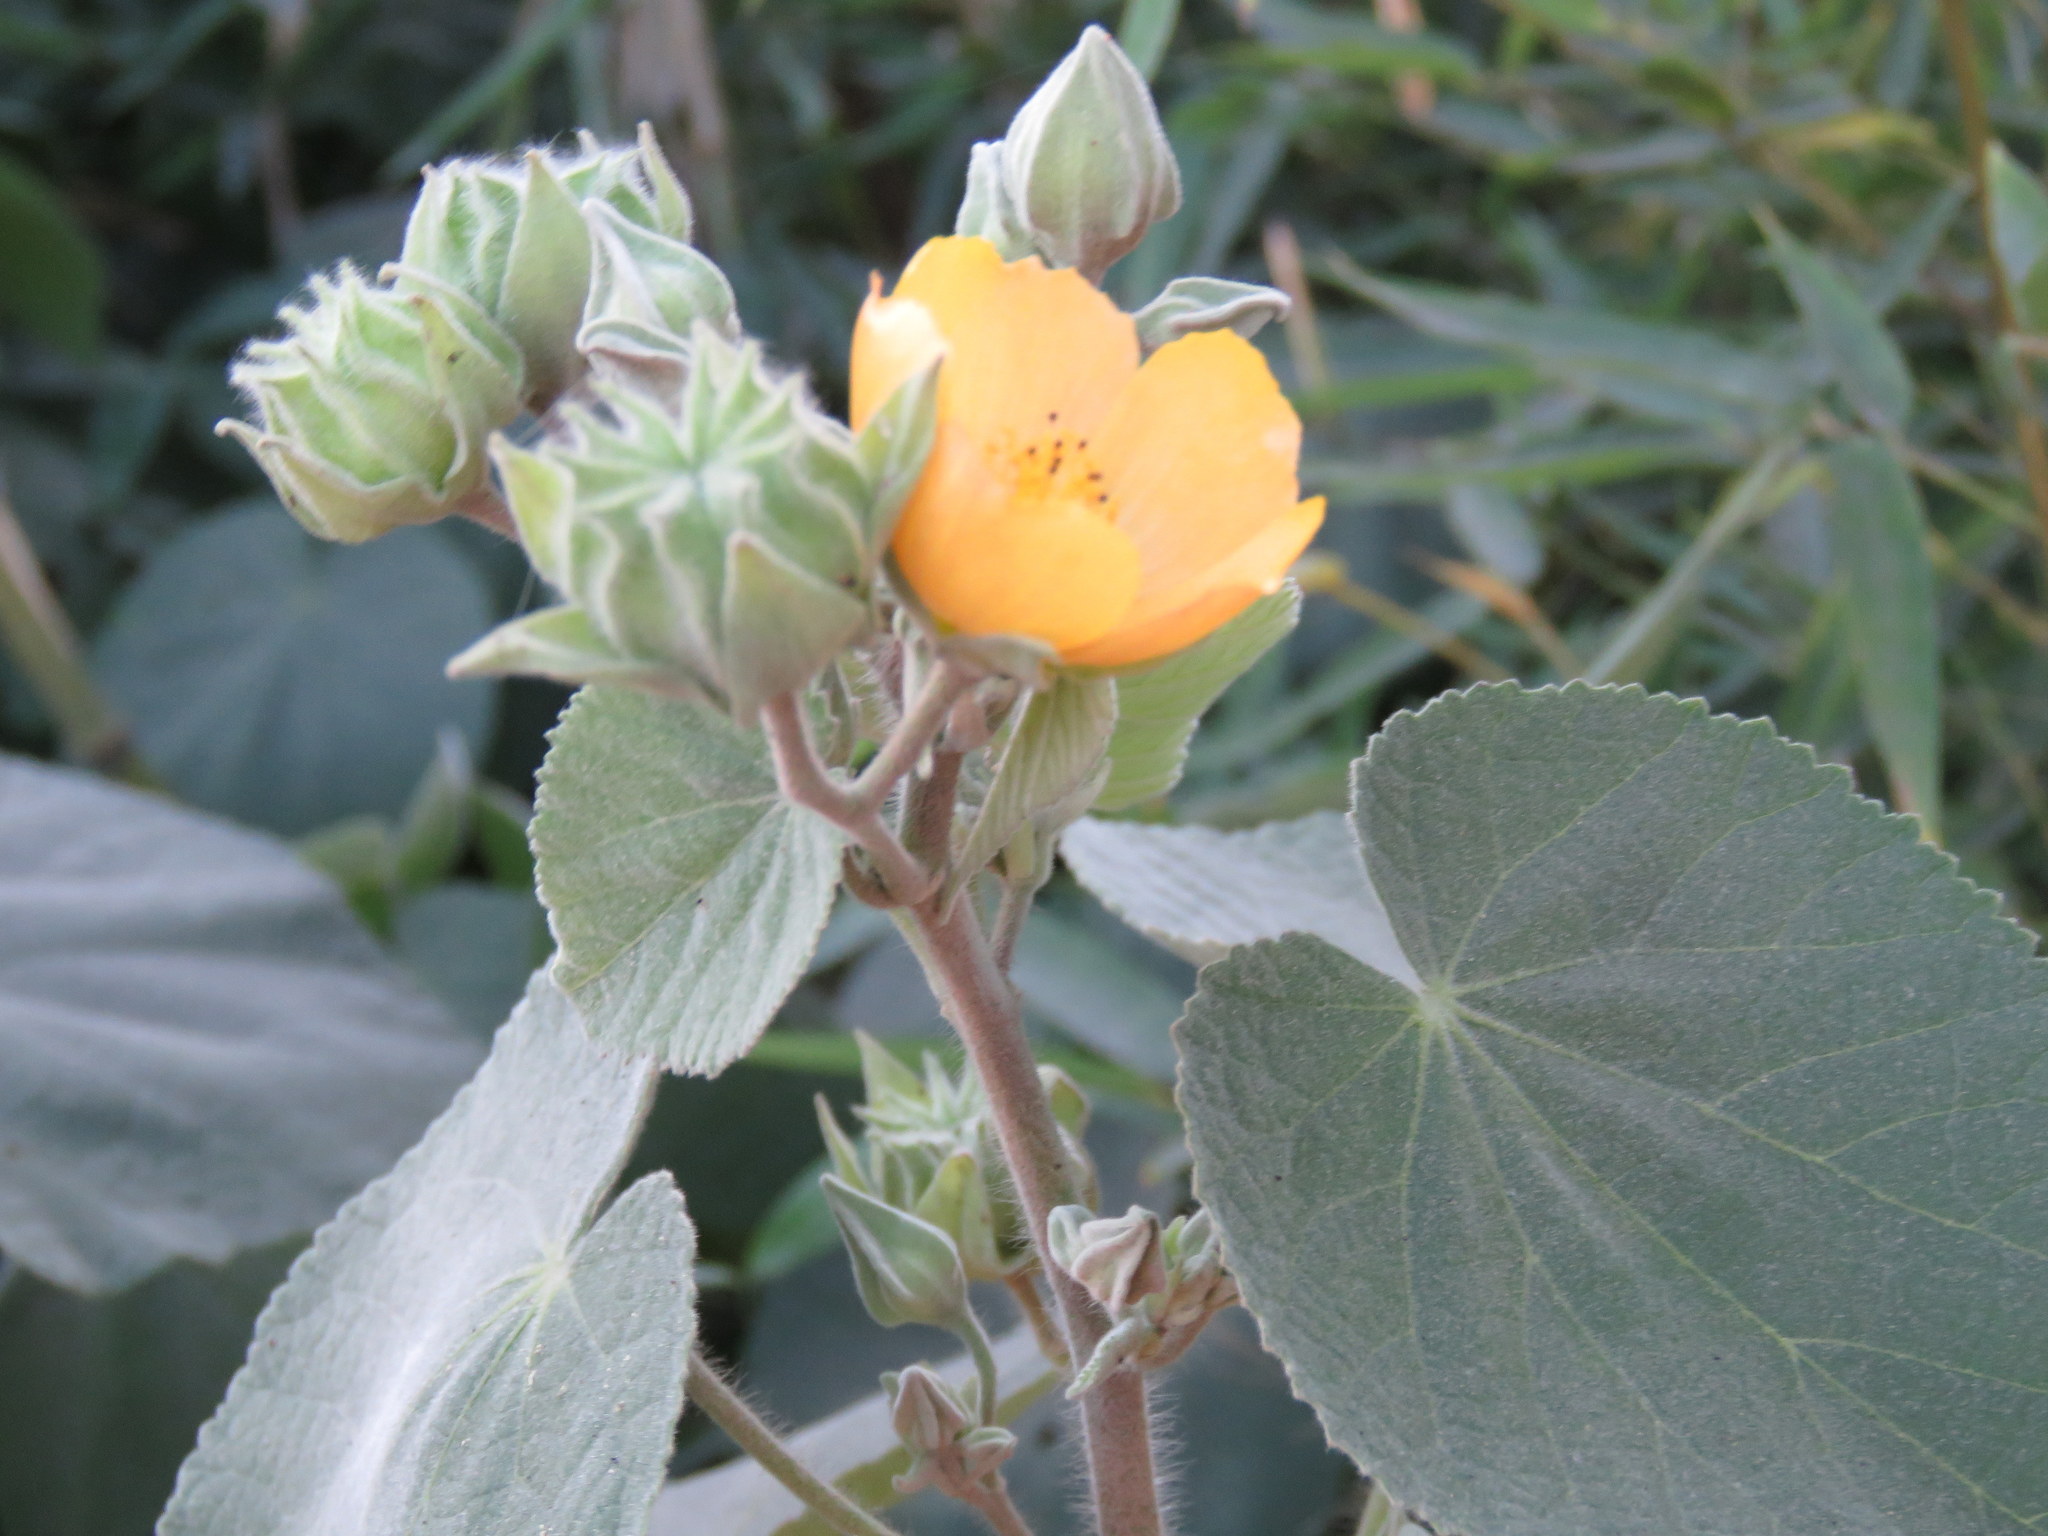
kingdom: Plantae
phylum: Tracheophyta
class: Magnoliopsida
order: Malvales
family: Malvaceae
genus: Abutilon
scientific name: Abutilon grandifolium
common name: Hairy abutilon
